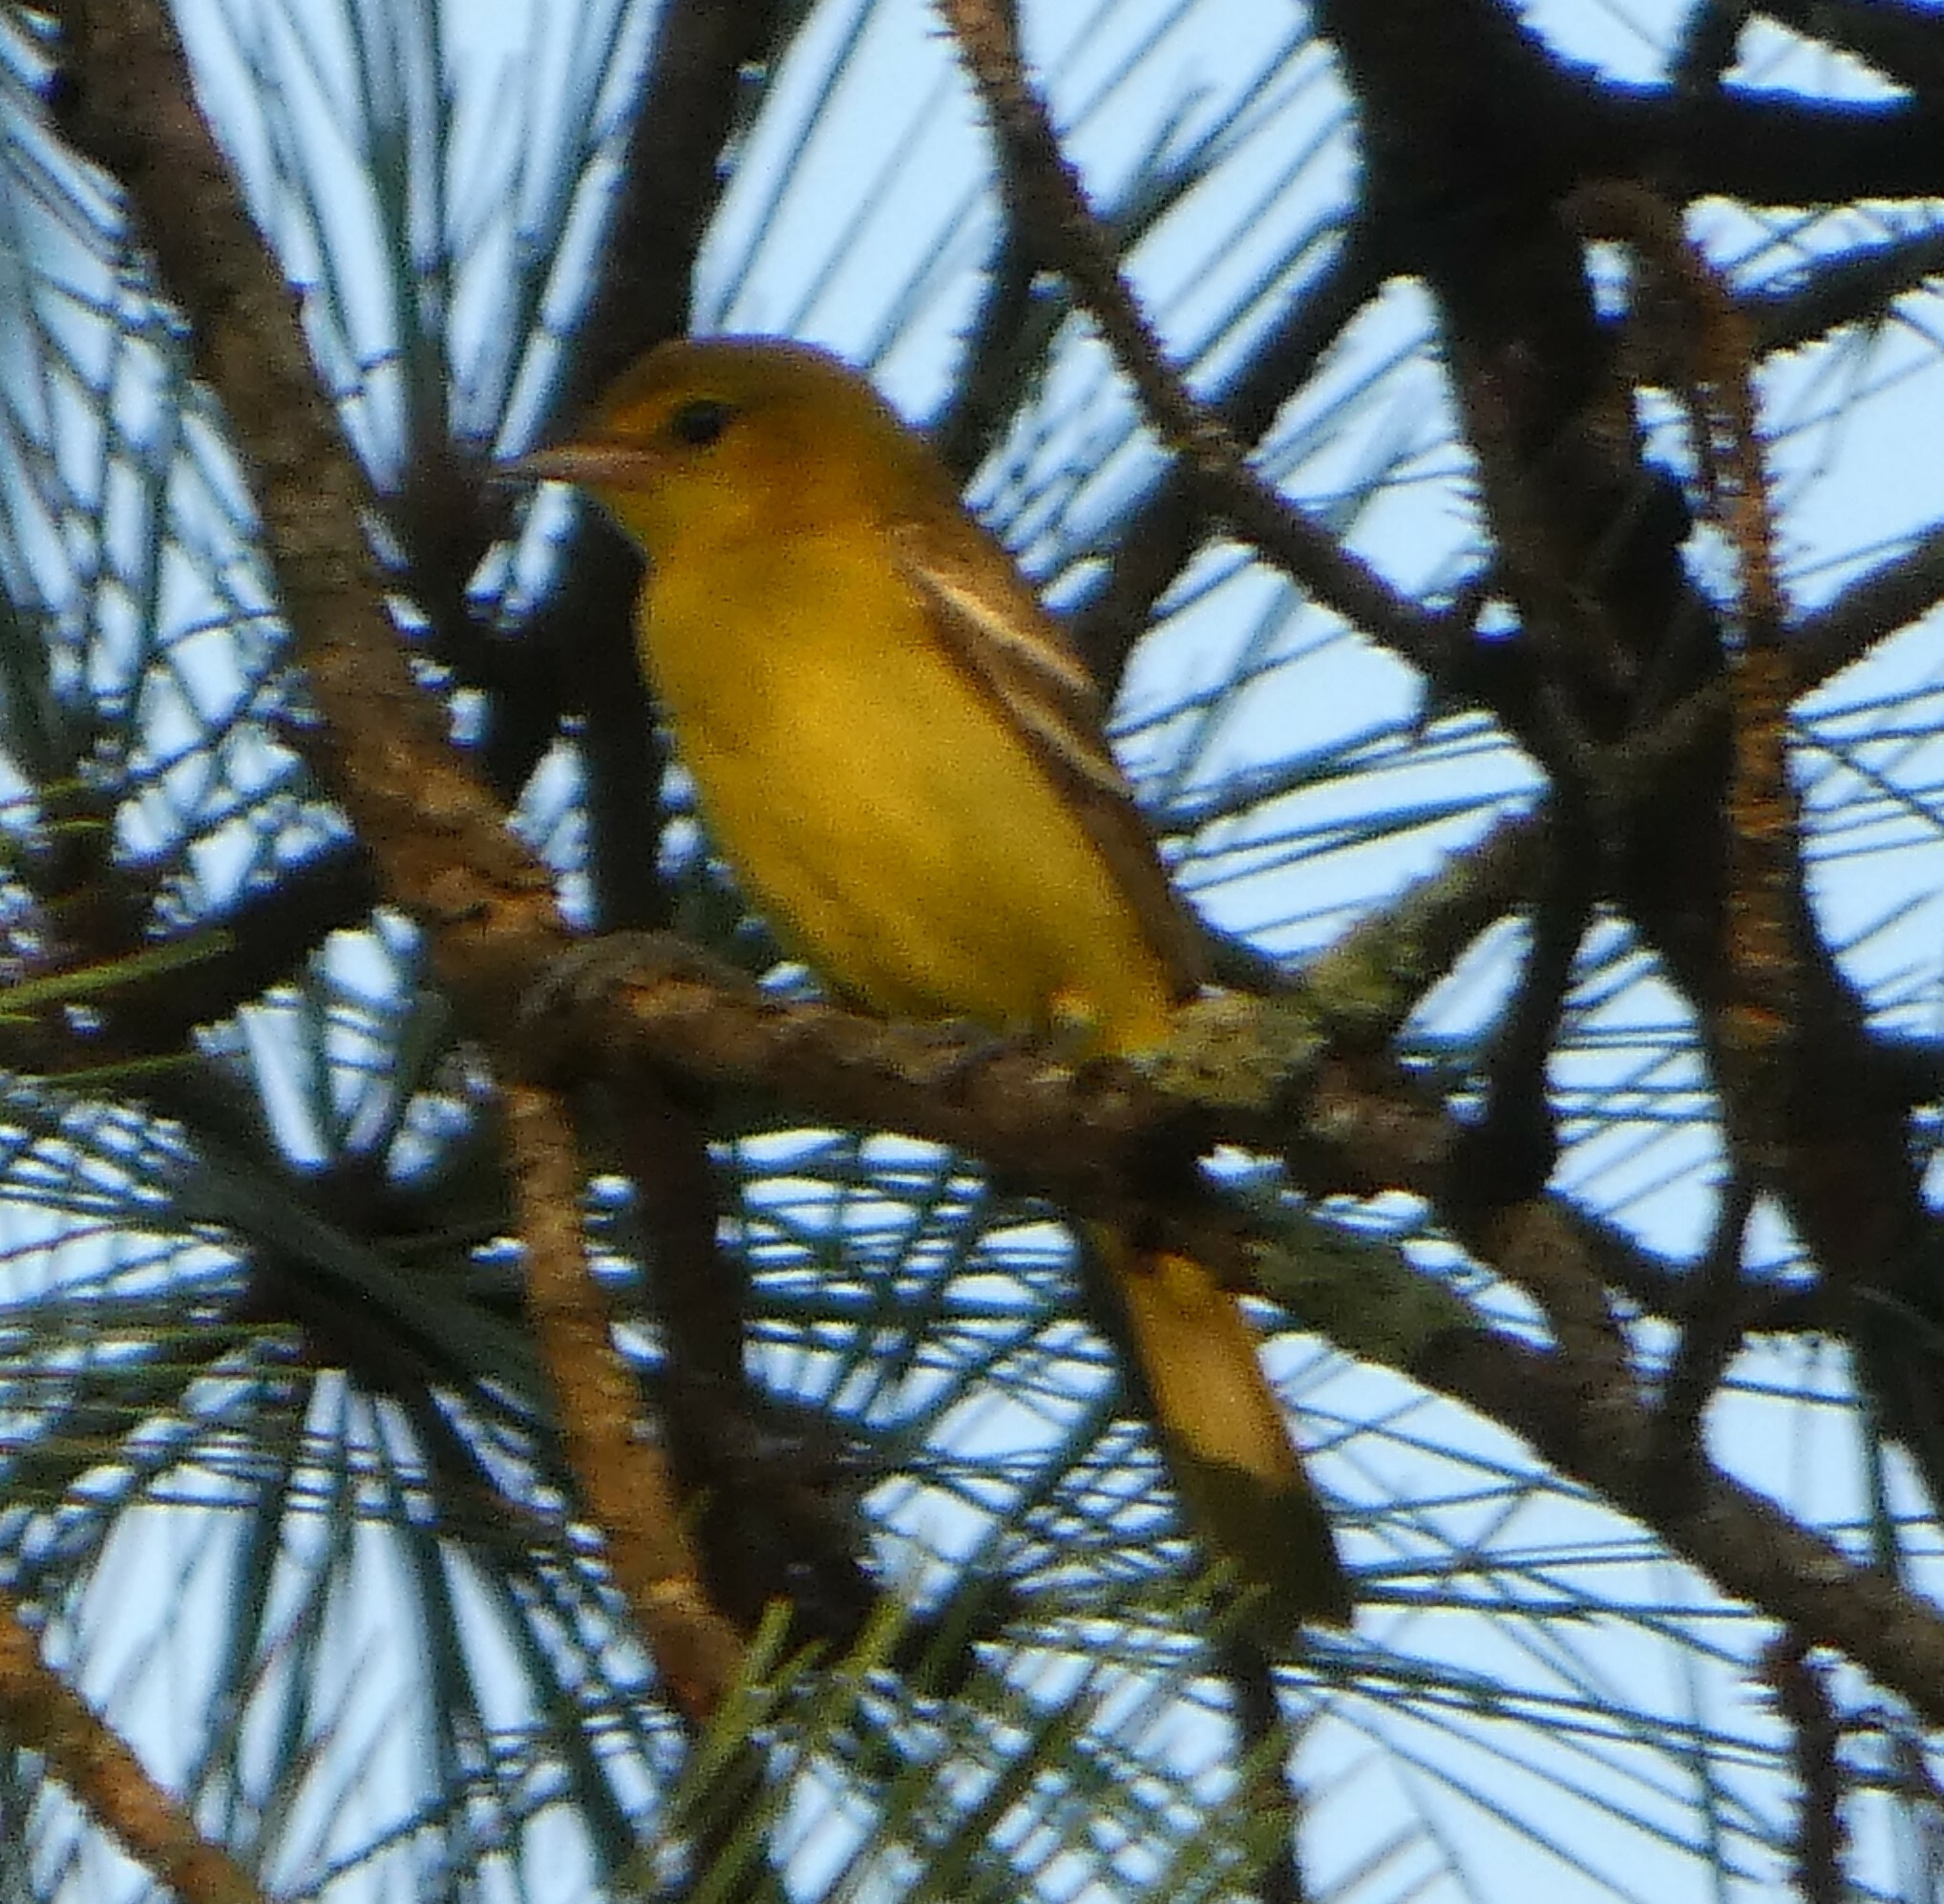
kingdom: Animalia
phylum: Chordata
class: Aves
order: Passeriformes
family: Icteridae
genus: Icterus
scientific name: Icterus spurius
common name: Orchard oriole
